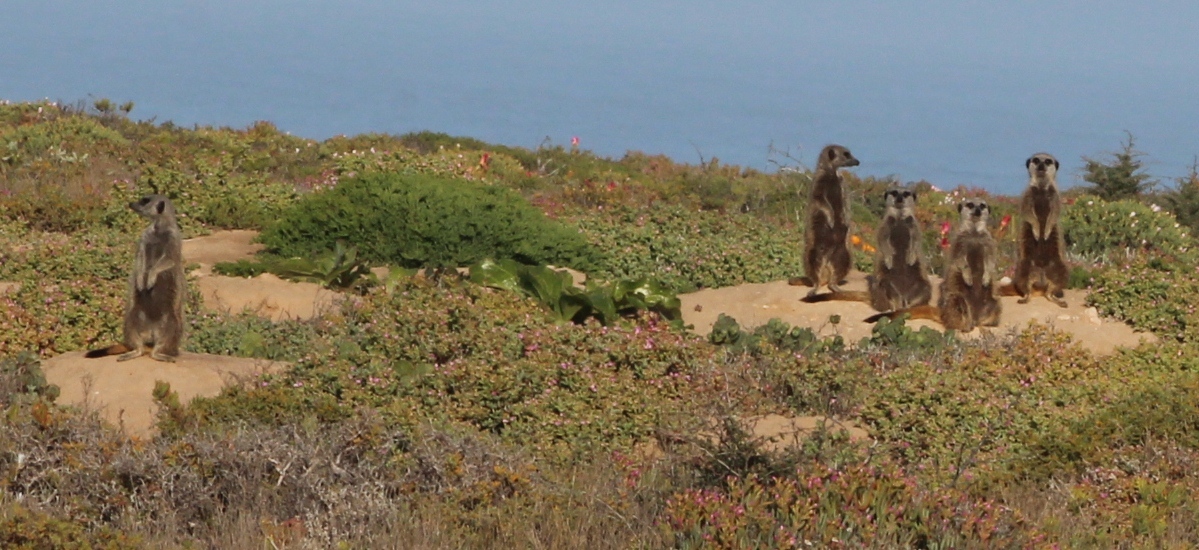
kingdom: Animalia
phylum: Chordata
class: Mammalia
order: Carnivora
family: Herpestidae
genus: Suricata
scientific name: Suricata suricatta
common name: Meerkat
